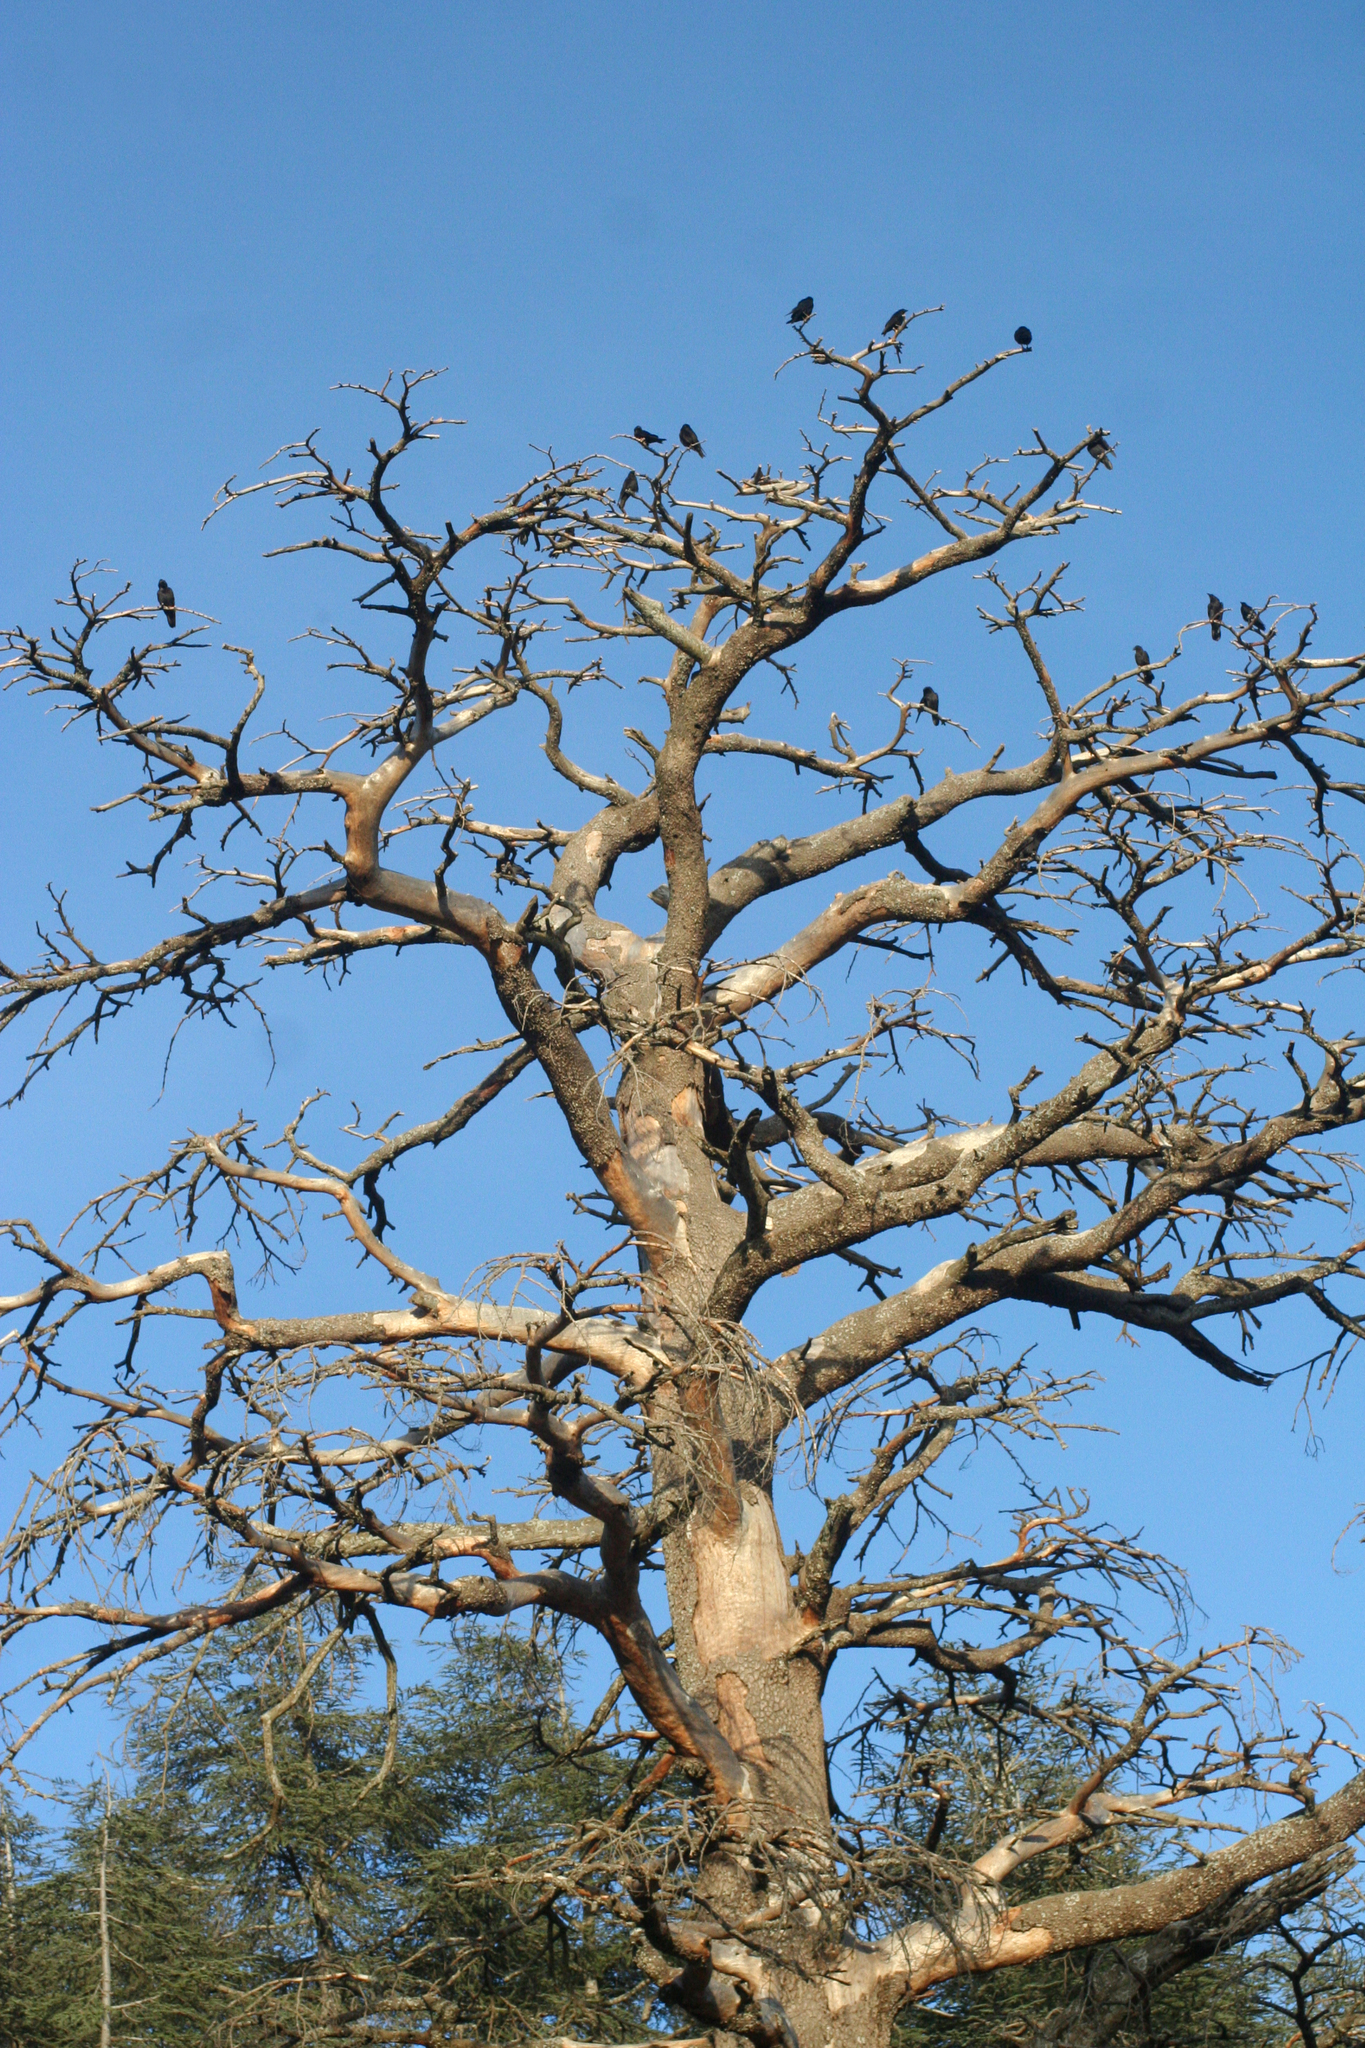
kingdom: Plantae
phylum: Tracheophyta
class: Pinopsida
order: Pinales
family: Pinaceae
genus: Cedrus
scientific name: Cedrus atlantica
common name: Atlas cedar
